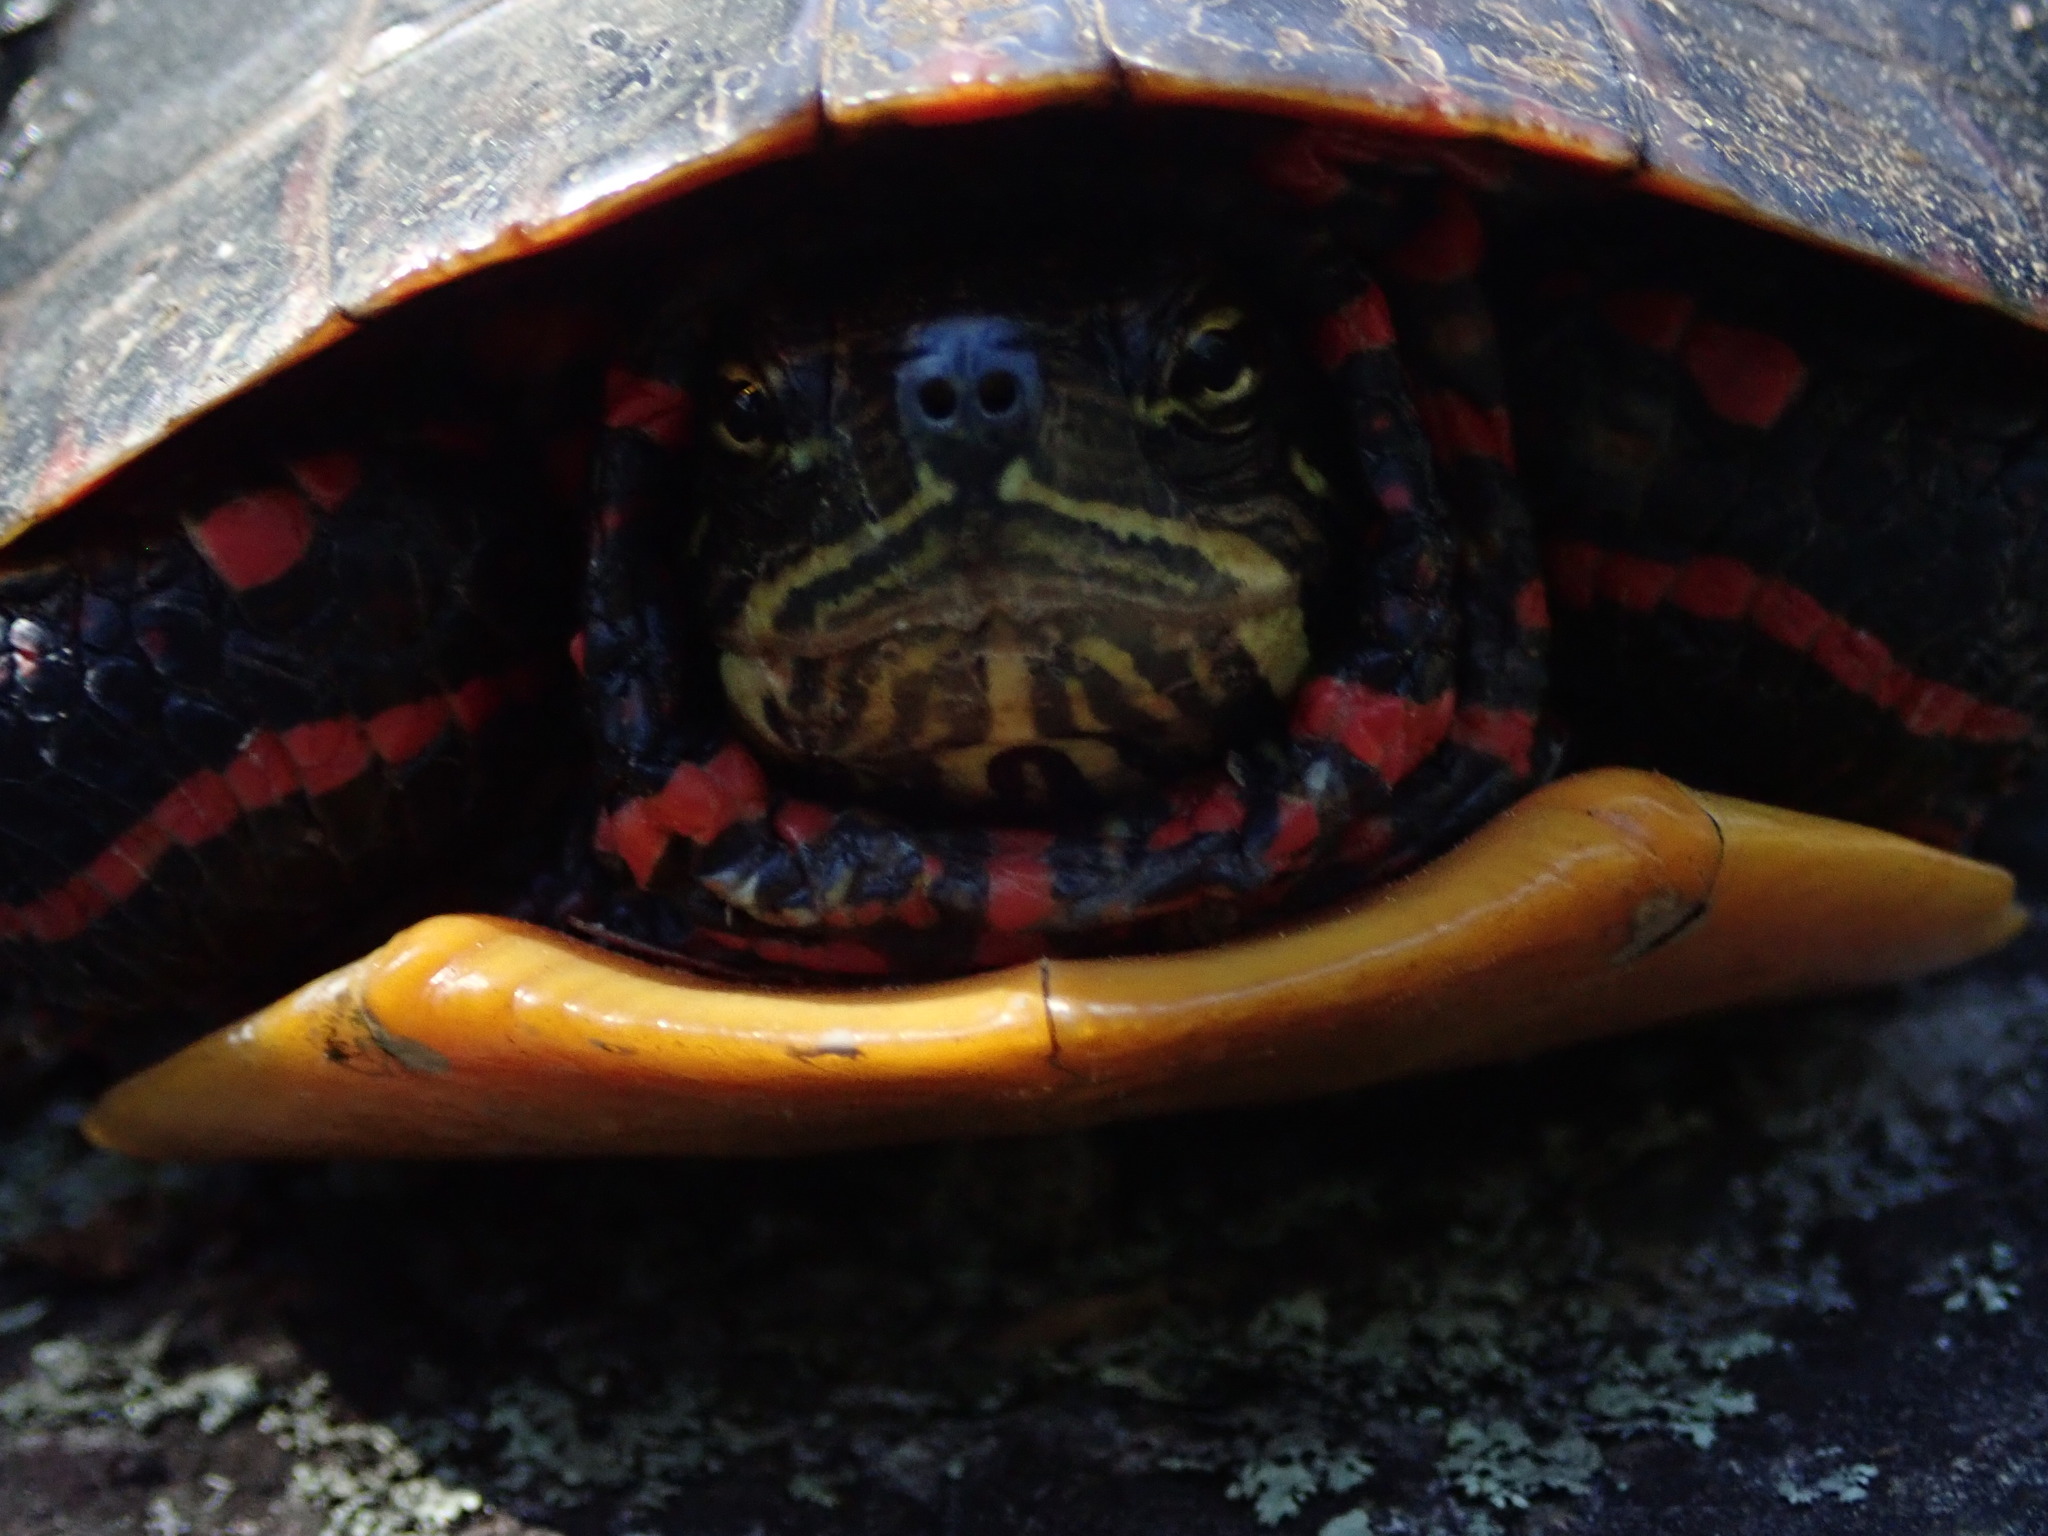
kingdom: Animalia
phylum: Chordata
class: Testudines
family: Emydidae
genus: Chrysemys
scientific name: Chrysemys picta
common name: Painted turtle
